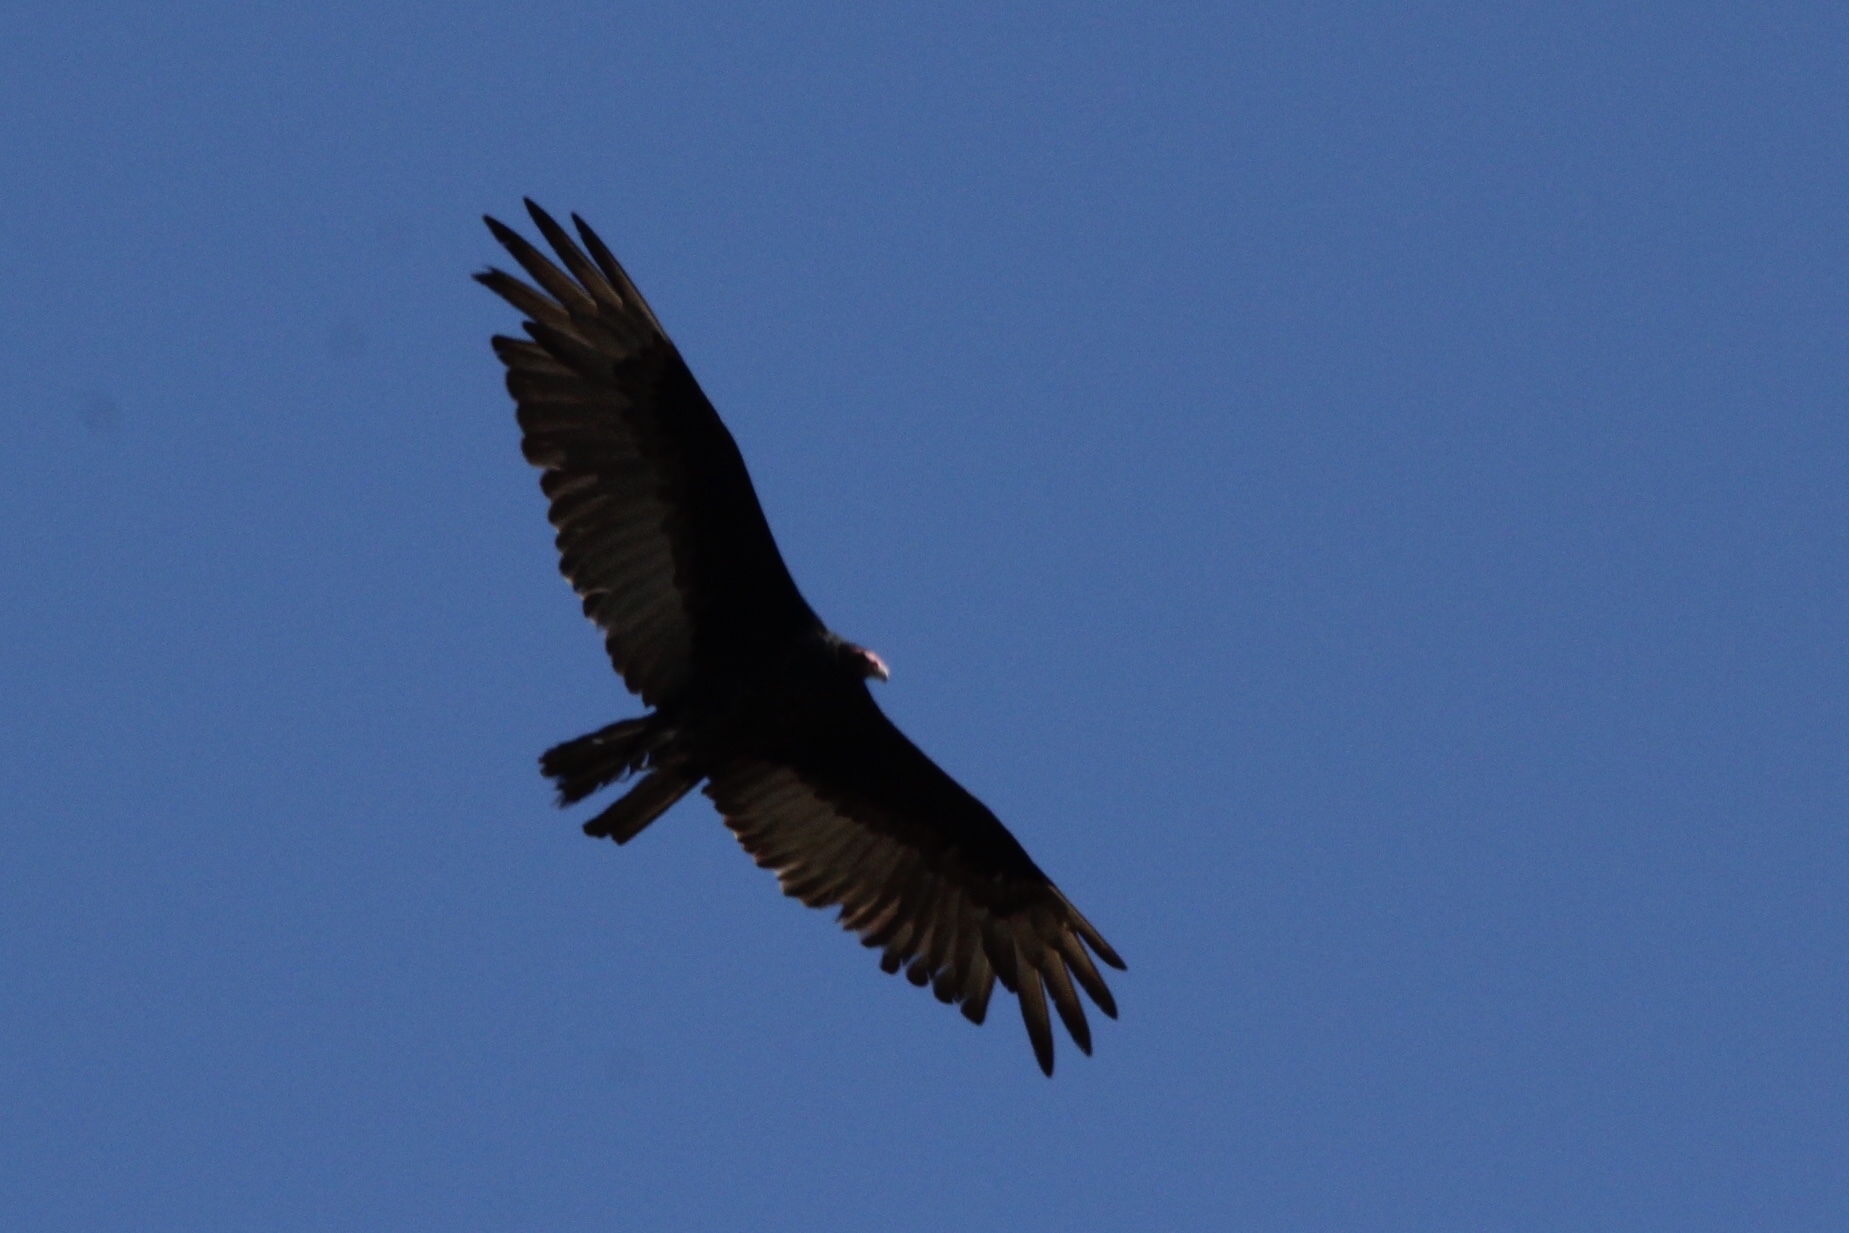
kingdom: Animalia
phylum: Chordata
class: Aves
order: Accipitriformes
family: Cathartidae
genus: Cathartes
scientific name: Cathartes aura
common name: Turkey vulture
